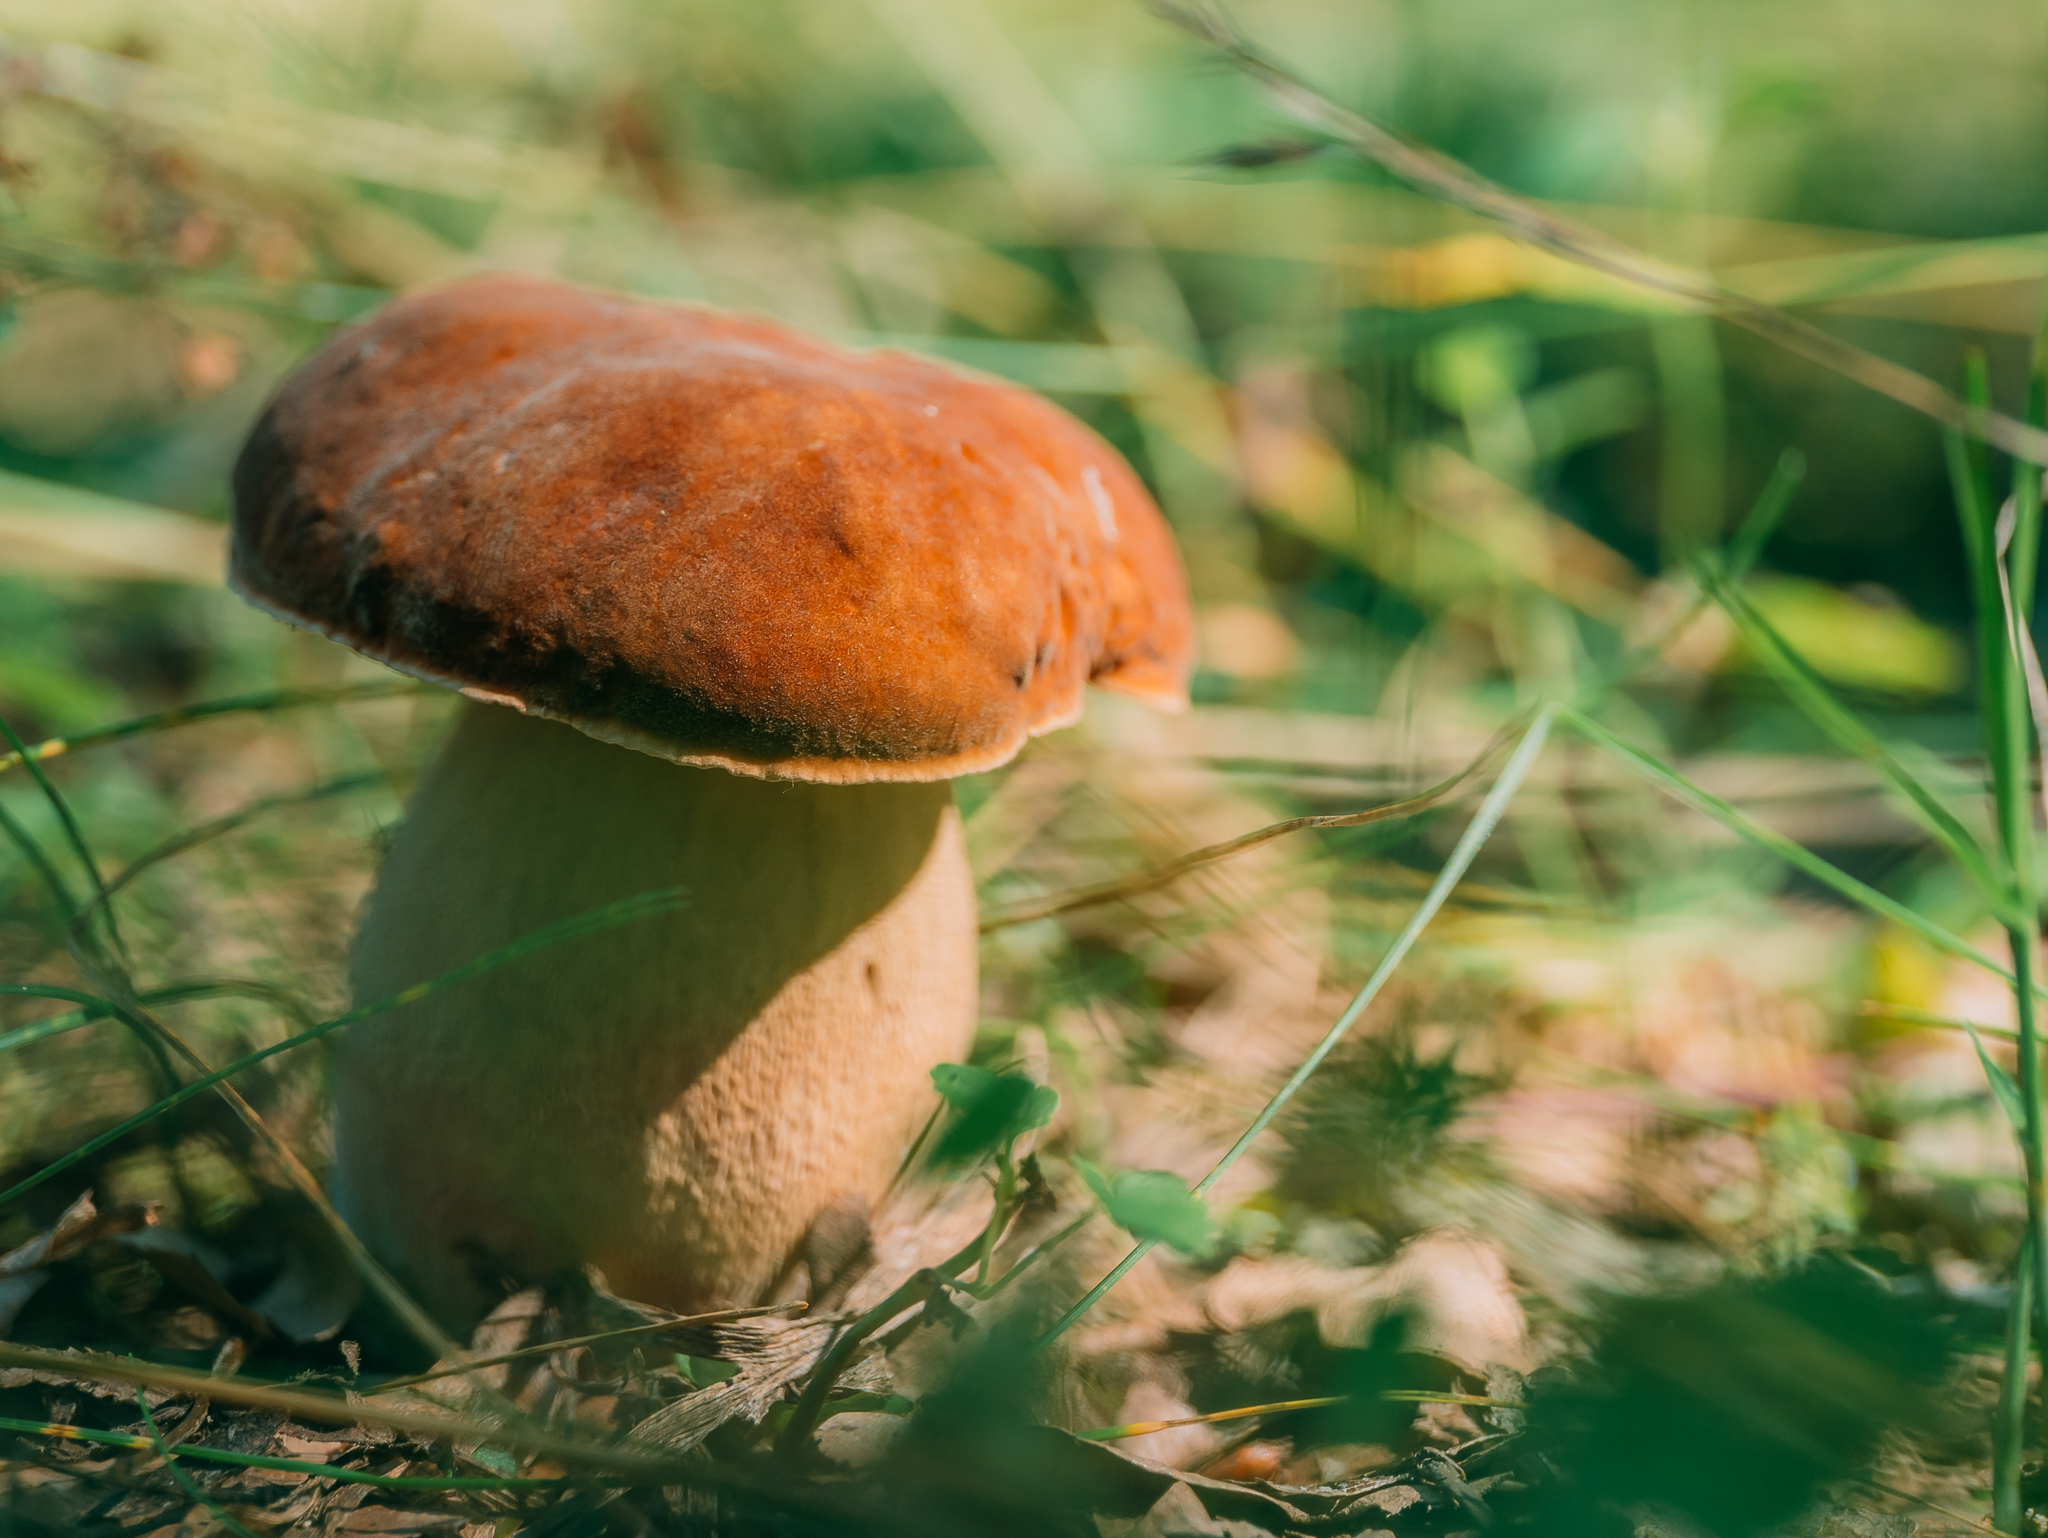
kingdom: Fungi
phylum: Basidiomycota
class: Agaricomycetes
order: Boletales
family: Boletaceae
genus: Boletus
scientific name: Boletus reticulatus
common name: Summer bolete
